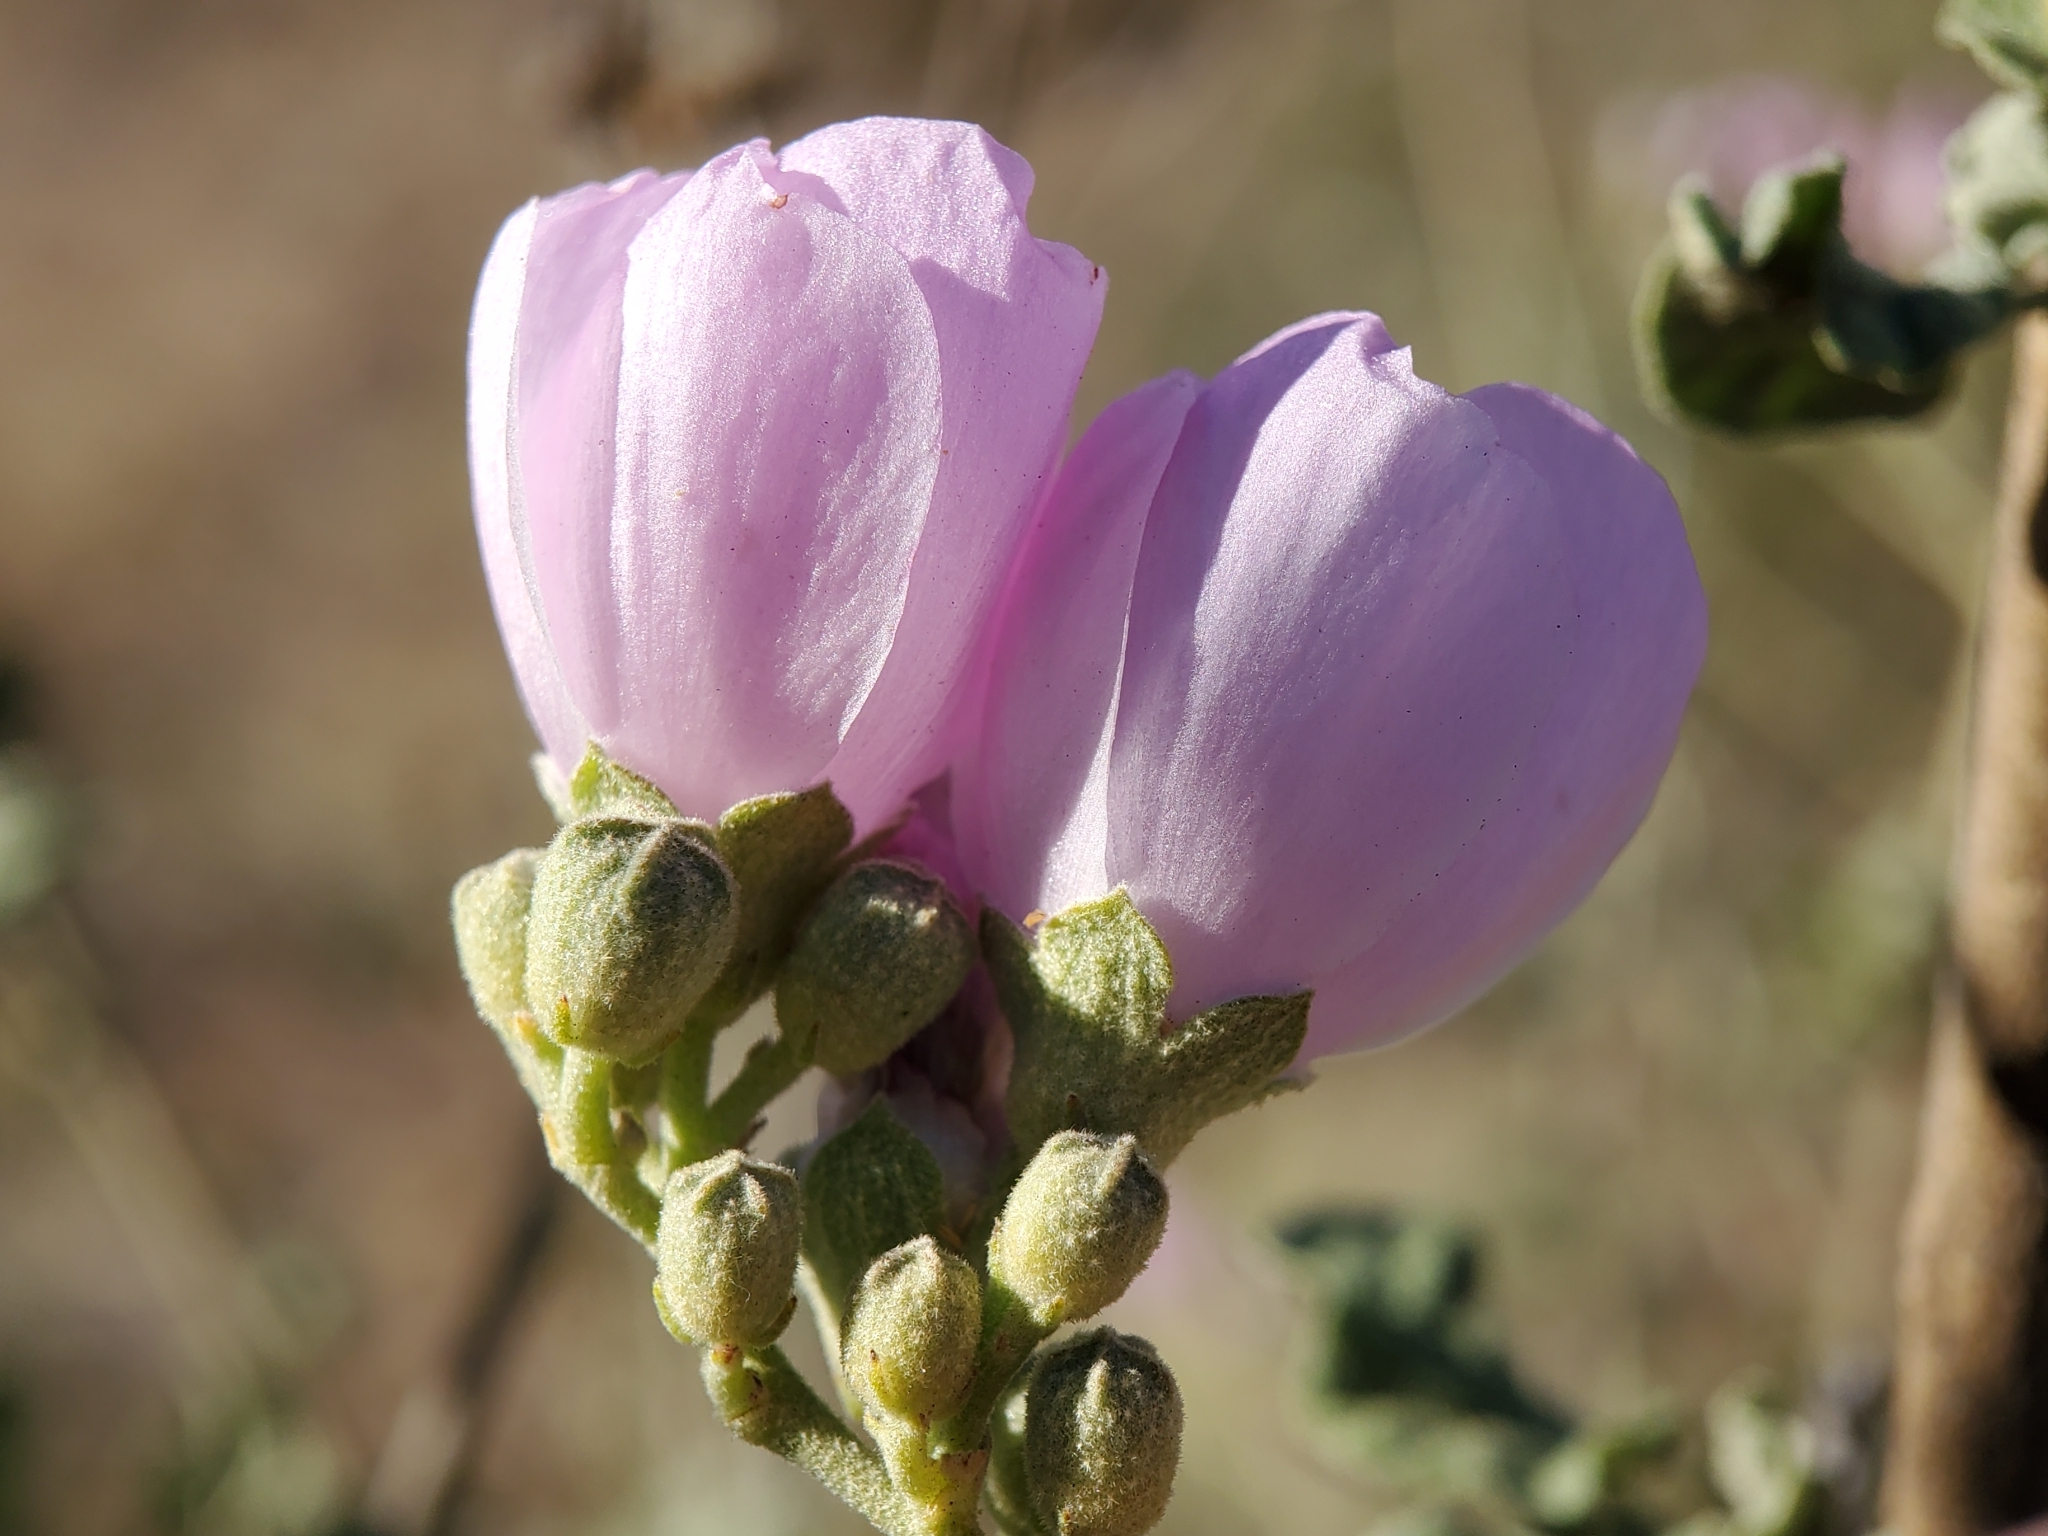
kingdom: Plantae
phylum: Tracheophyta
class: Magnoliopsida
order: Malvales
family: Malvaceae
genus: Malacothamnus
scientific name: Malacothamnus fasciculatus
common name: Sant cruz island bush-mallow
